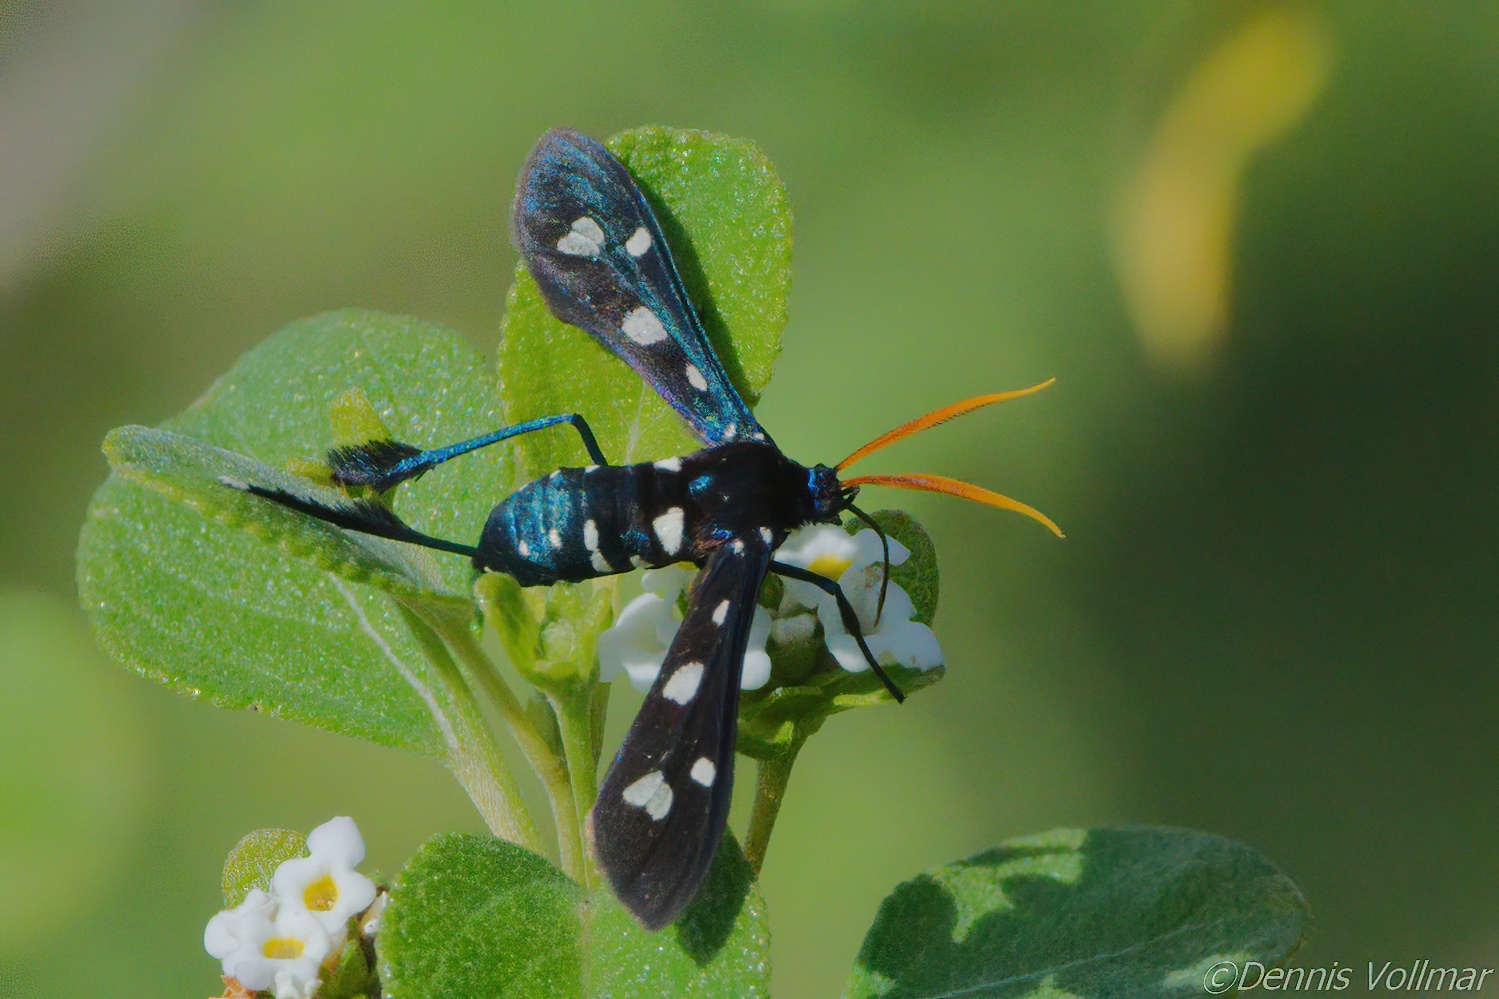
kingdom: Animalia
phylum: Arthropoda
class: Insecta
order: Lepidoptera
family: Erebidae
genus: Pseudohyaleucerea
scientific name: Pseudohyaleucerea minima
